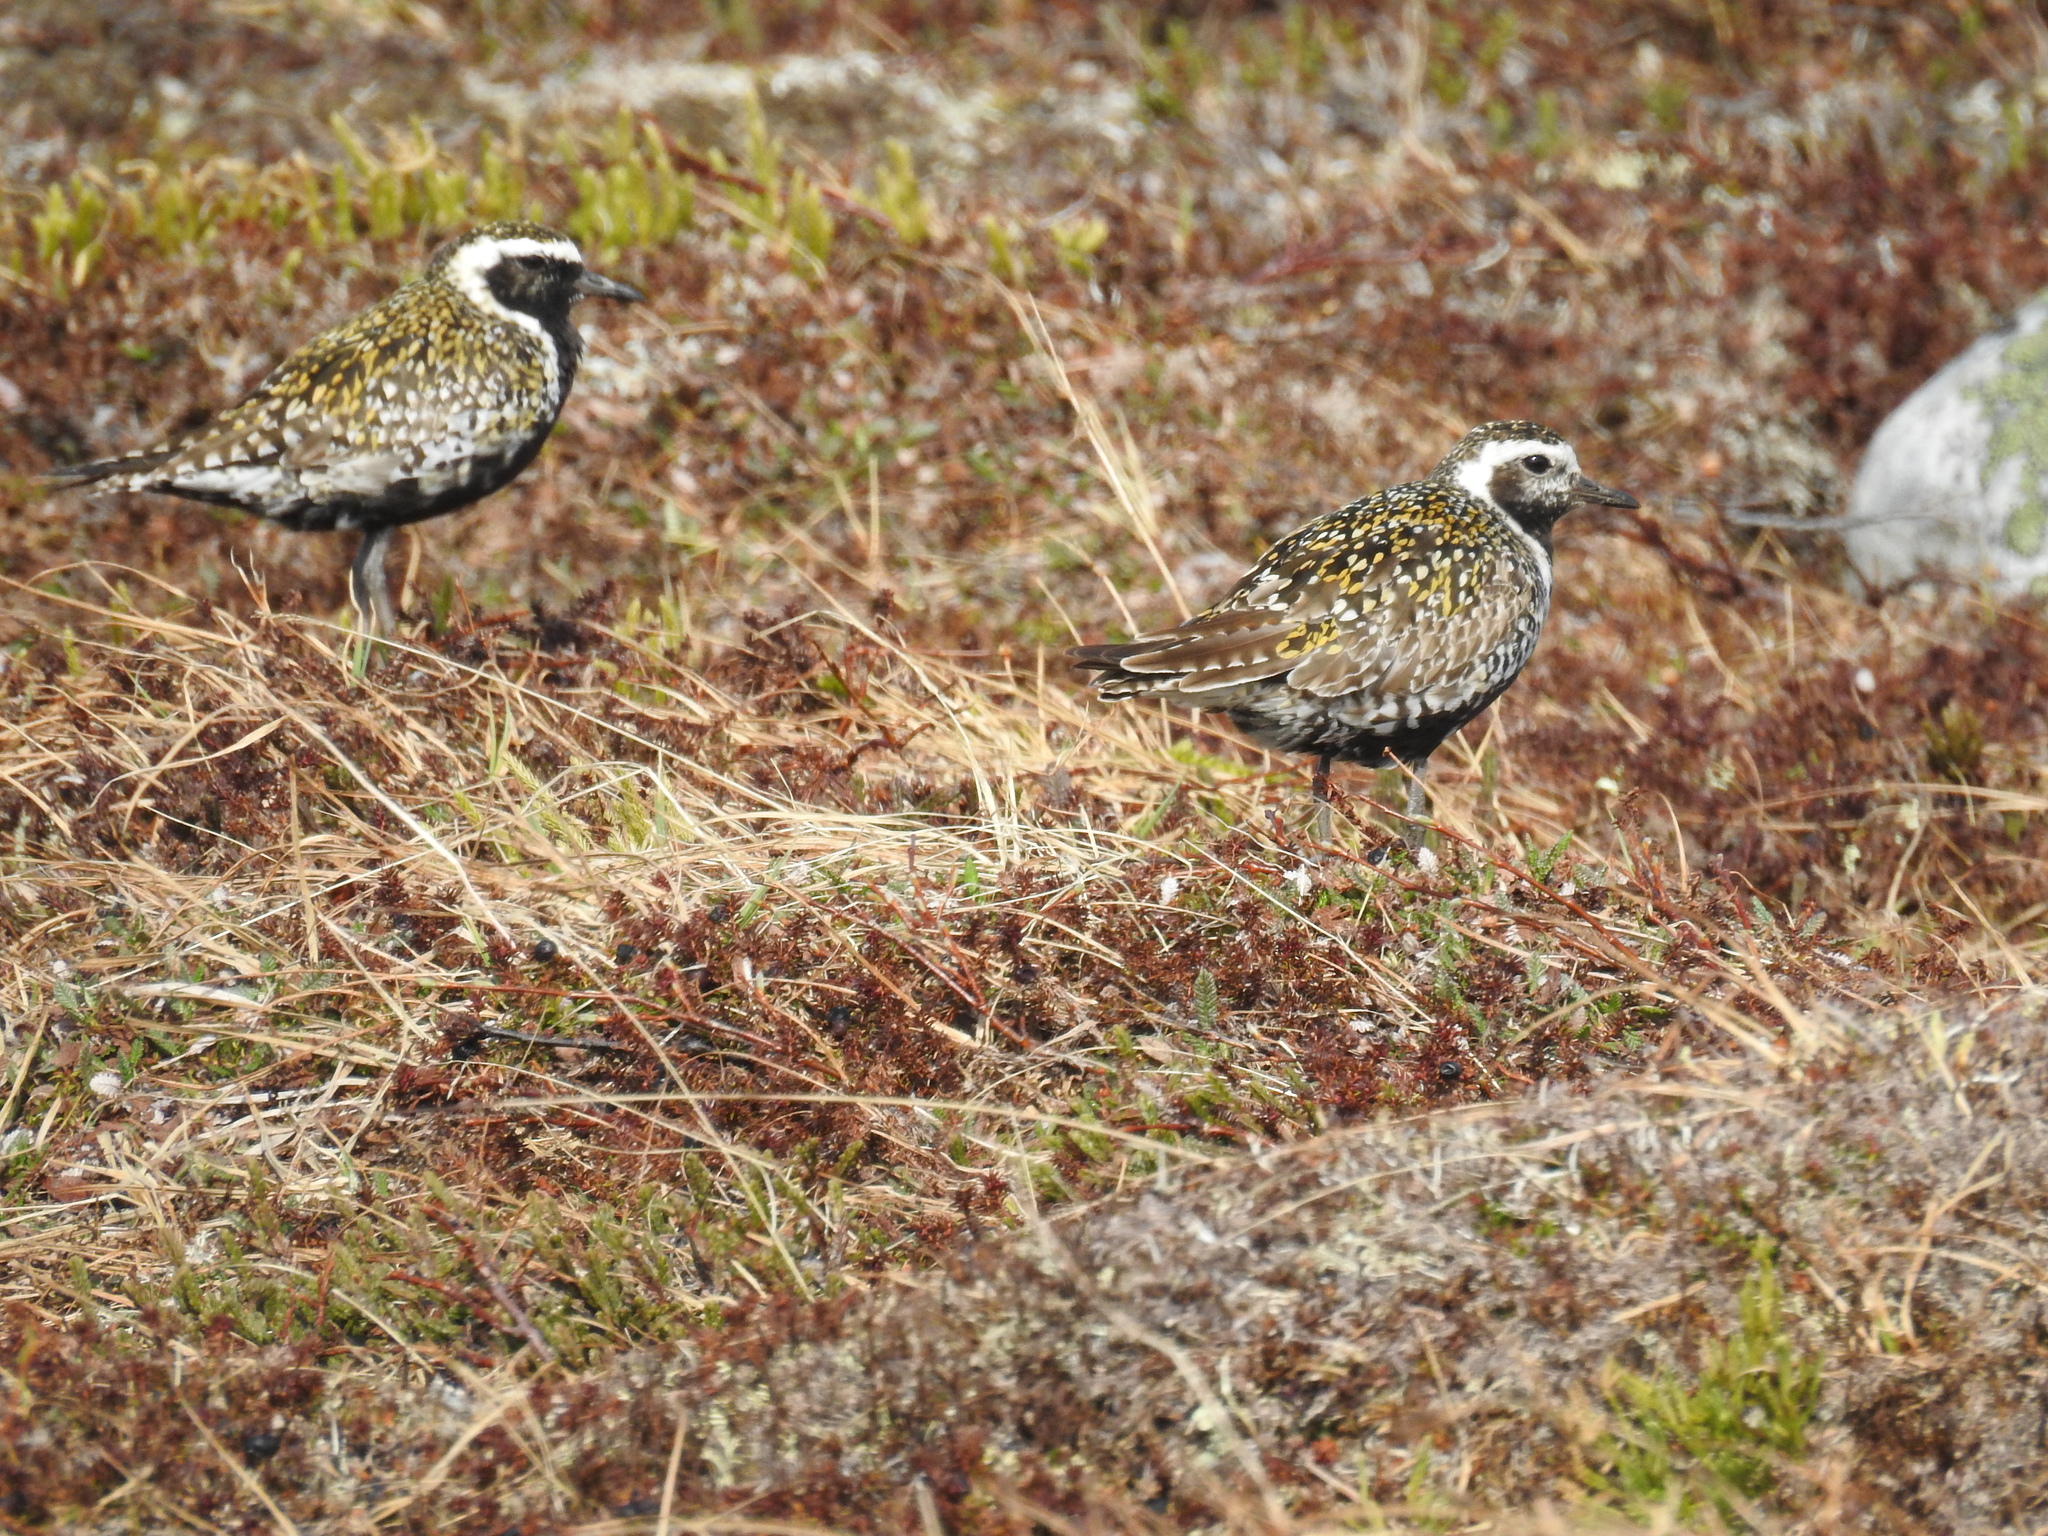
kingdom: Animalia
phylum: Chordata
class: Aves
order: Charadriiformes
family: Charadriidae
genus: Pluvialis
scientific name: Pluvialis fulva
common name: Pacific golden plover
